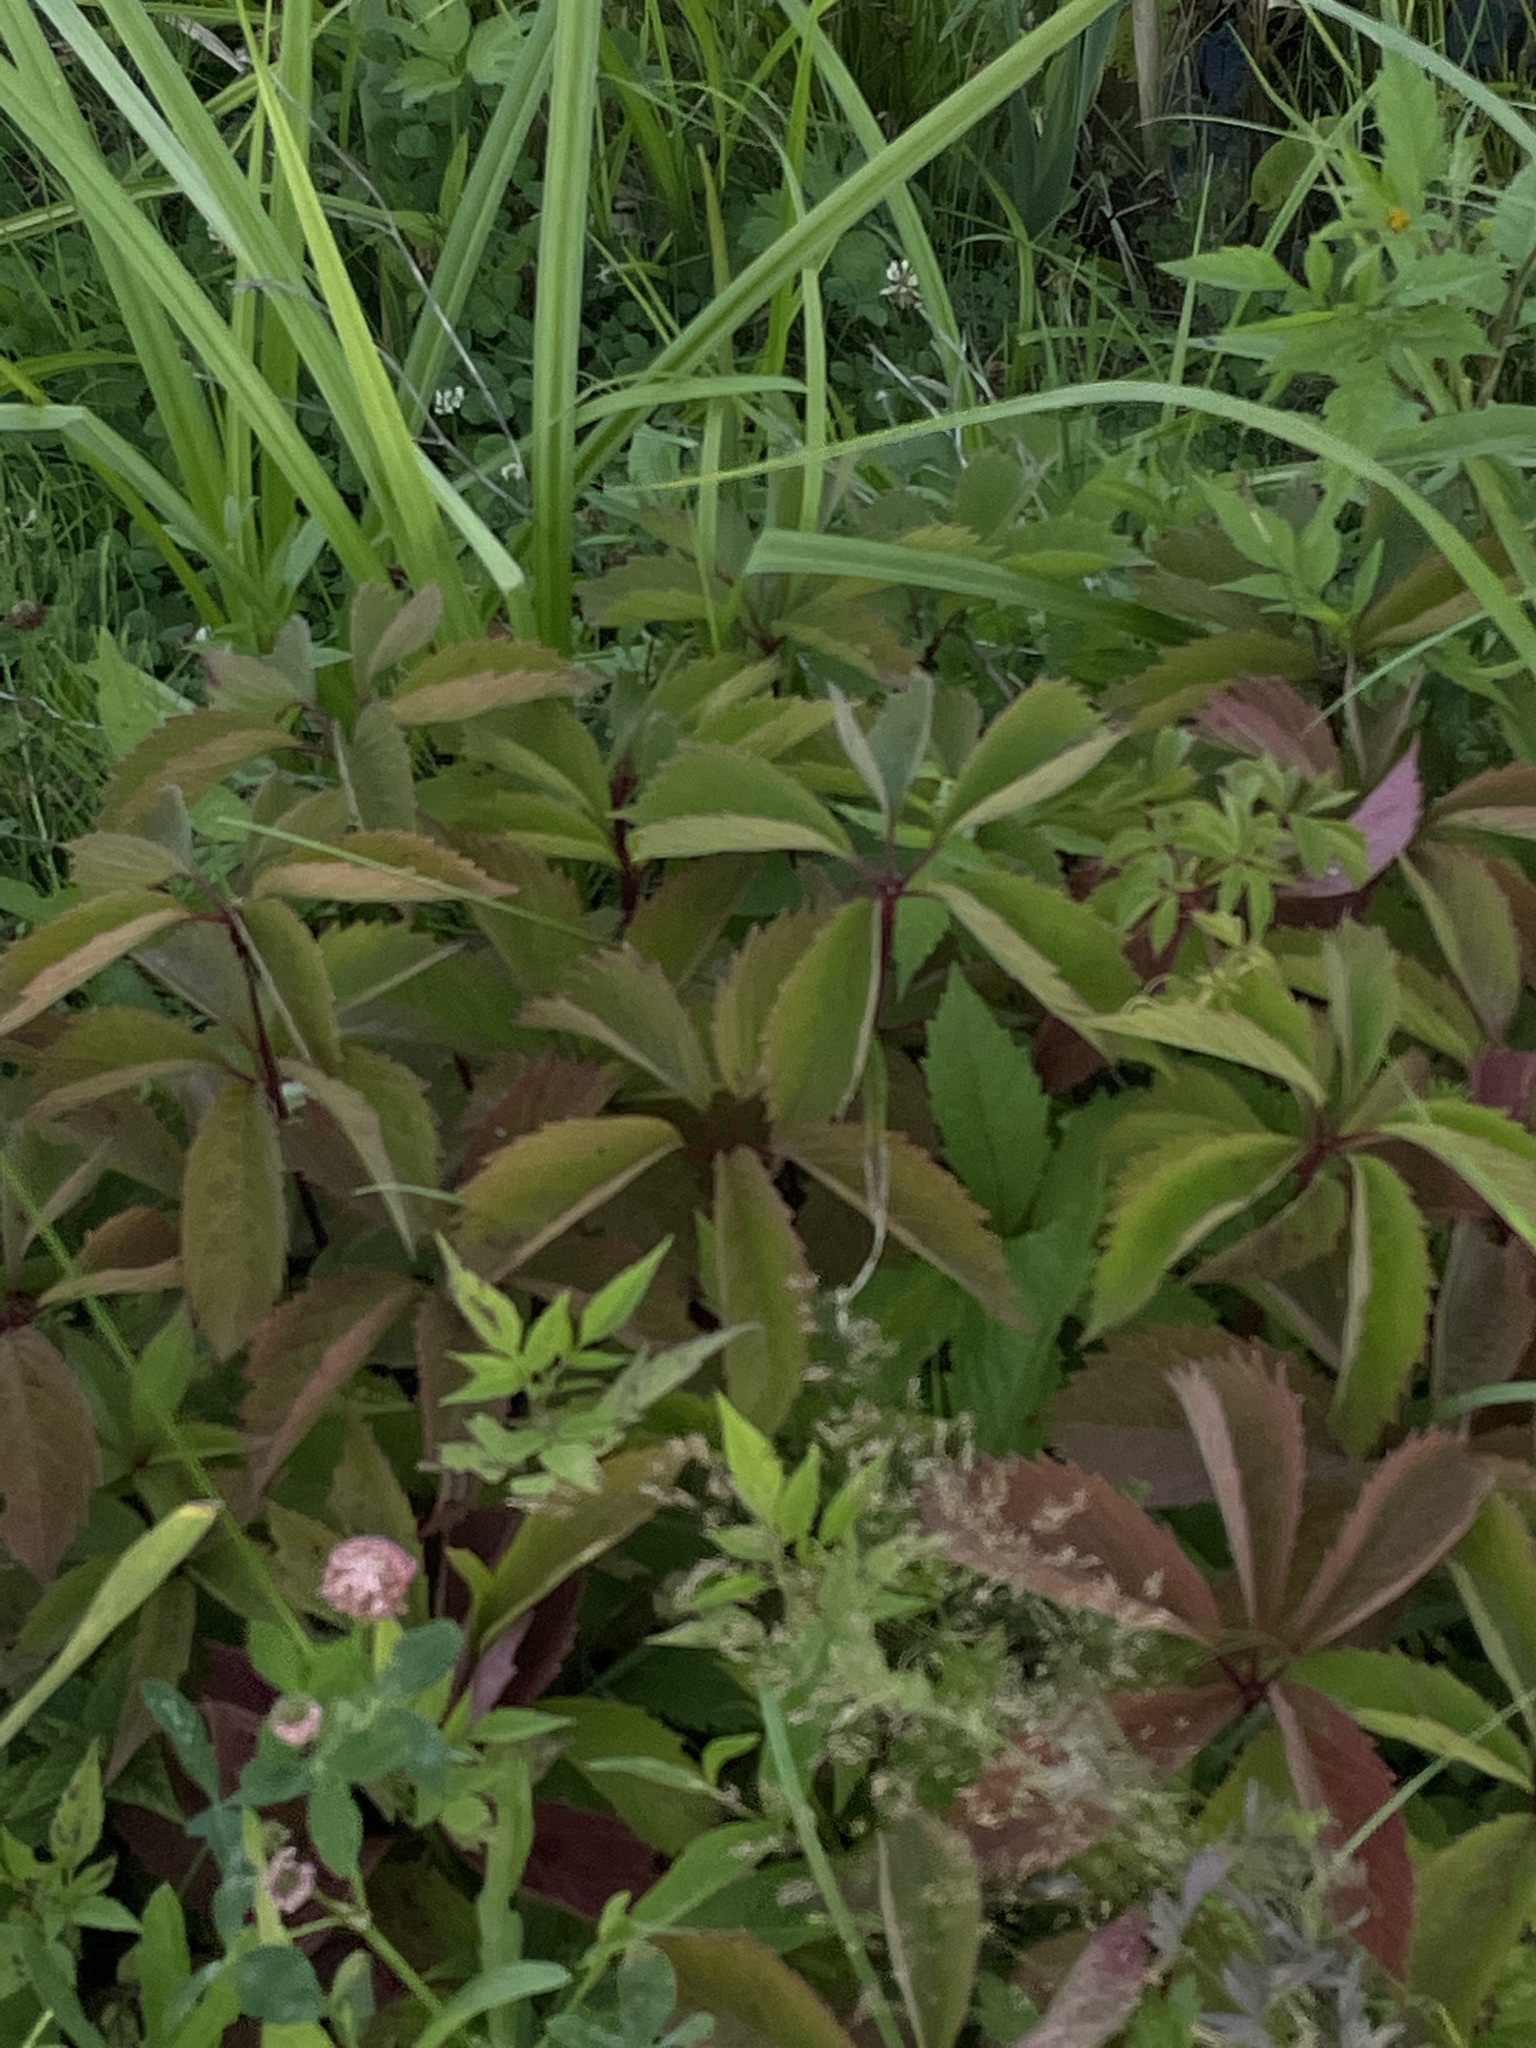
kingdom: Plantae
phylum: Tracheophyta
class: Magnoliopsida
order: Vitales
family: Vitaceae
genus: Parthenocissus
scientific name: Parthenocissus inserta
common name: False virginia-creeper
